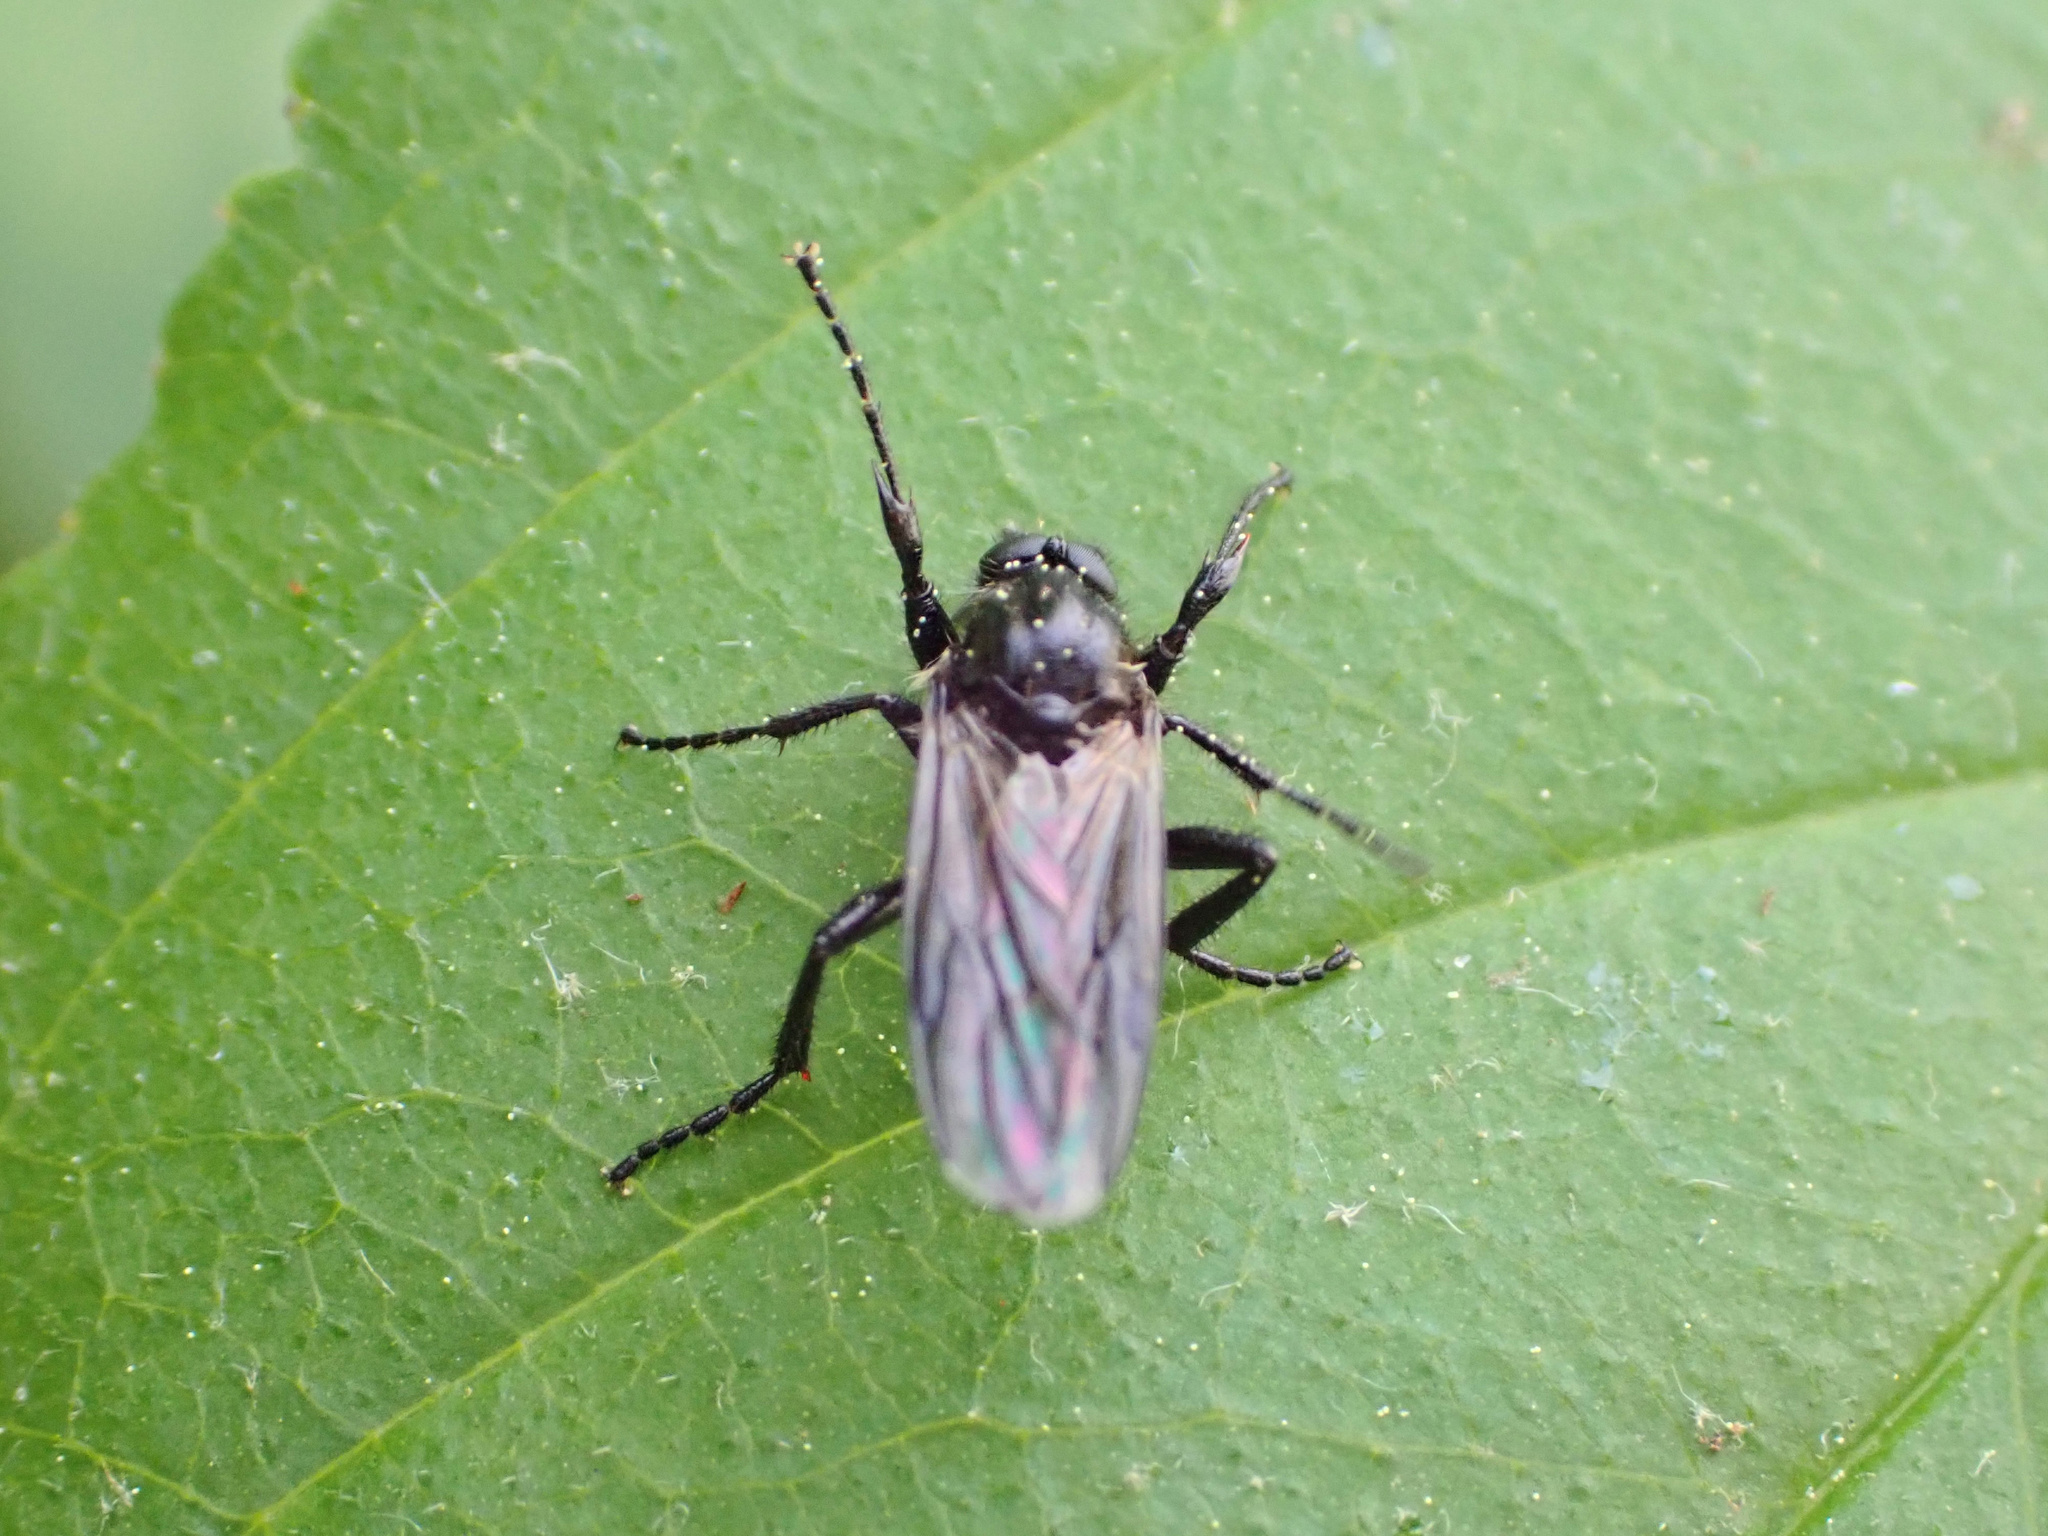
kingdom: Animalia
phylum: Arthropoda
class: Insecta
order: Diptera
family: Bibionidae
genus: Bibio
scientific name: Bibio albipennis
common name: White-winged march fly
